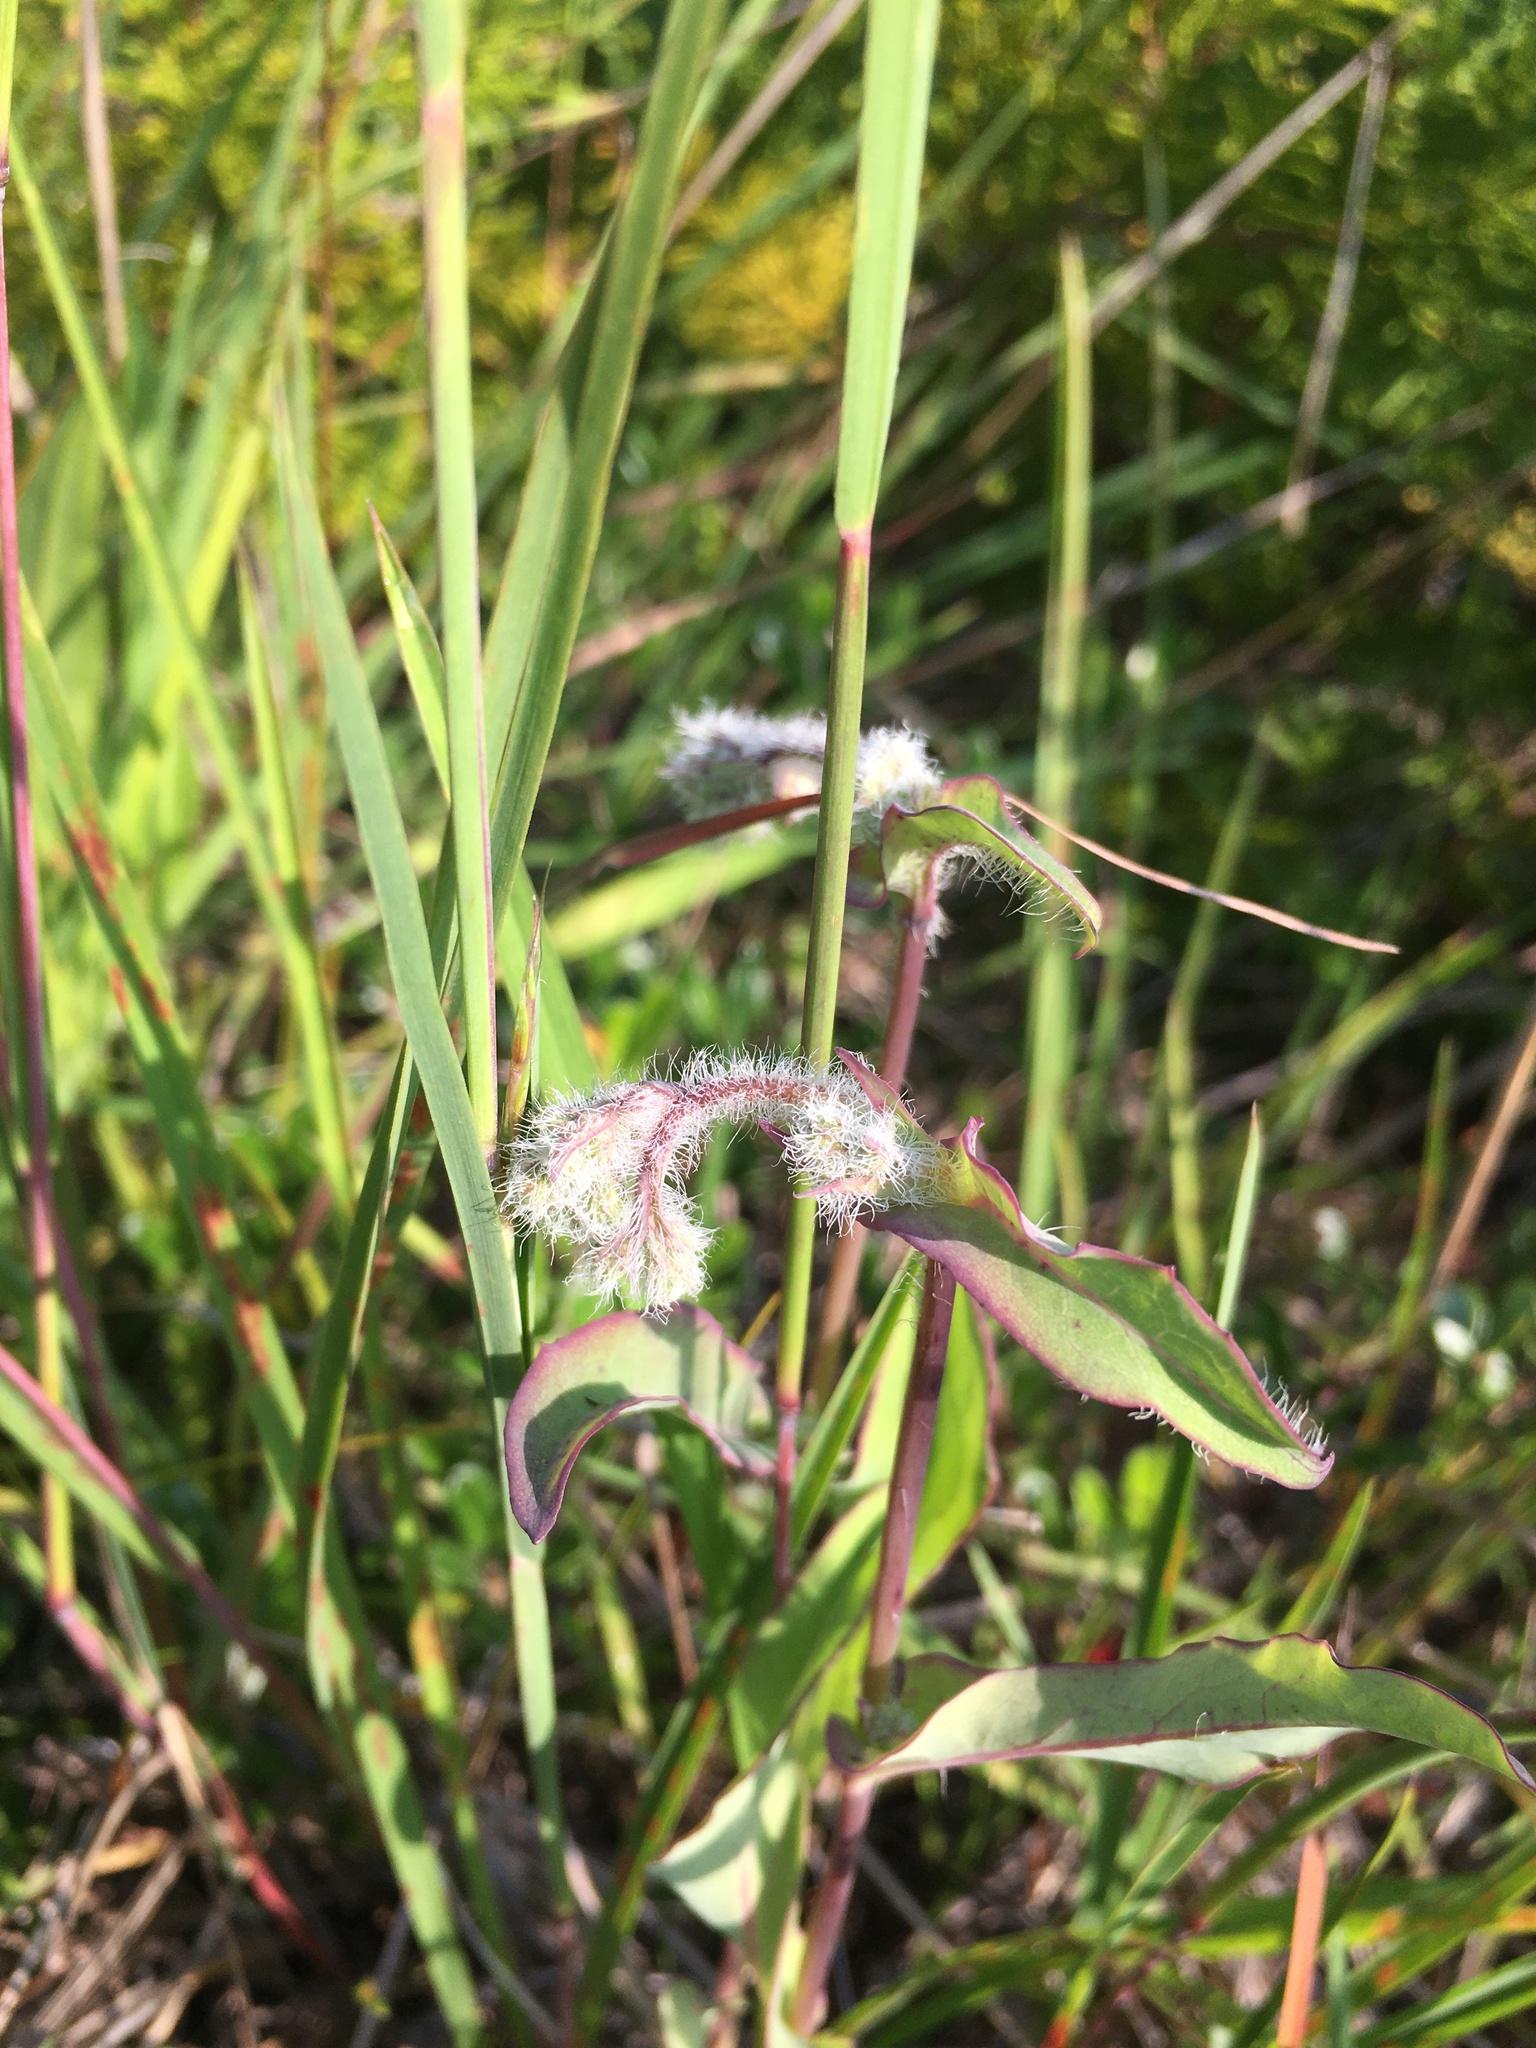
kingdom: Plantae
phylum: Tracheophyta
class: Magnoliopsida
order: Asterales
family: Asteraceae
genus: Nabalus
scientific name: Nabalus racemosus
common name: Glaucous white lettuce
